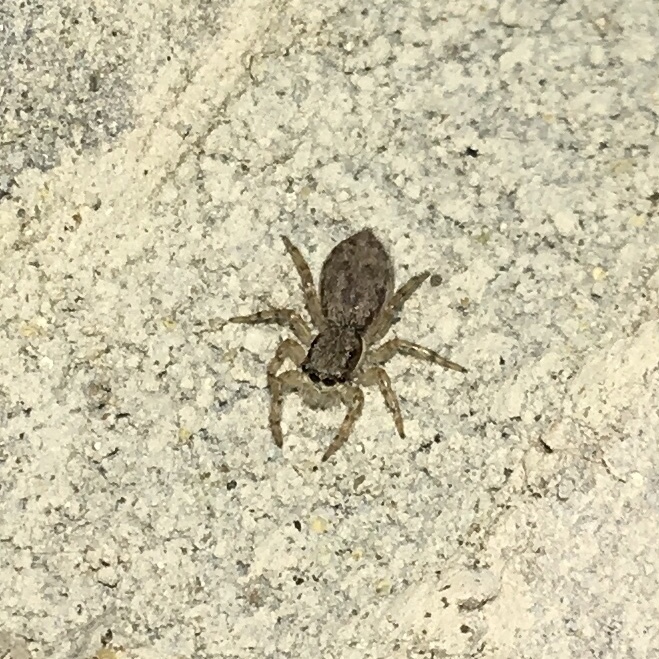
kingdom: Animalia
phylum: Arthropoda
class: Arachnida
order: Araneae
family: Salticidae
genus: Menemerus
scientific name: Menemerus bivittatus
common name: Gray wall jumper
